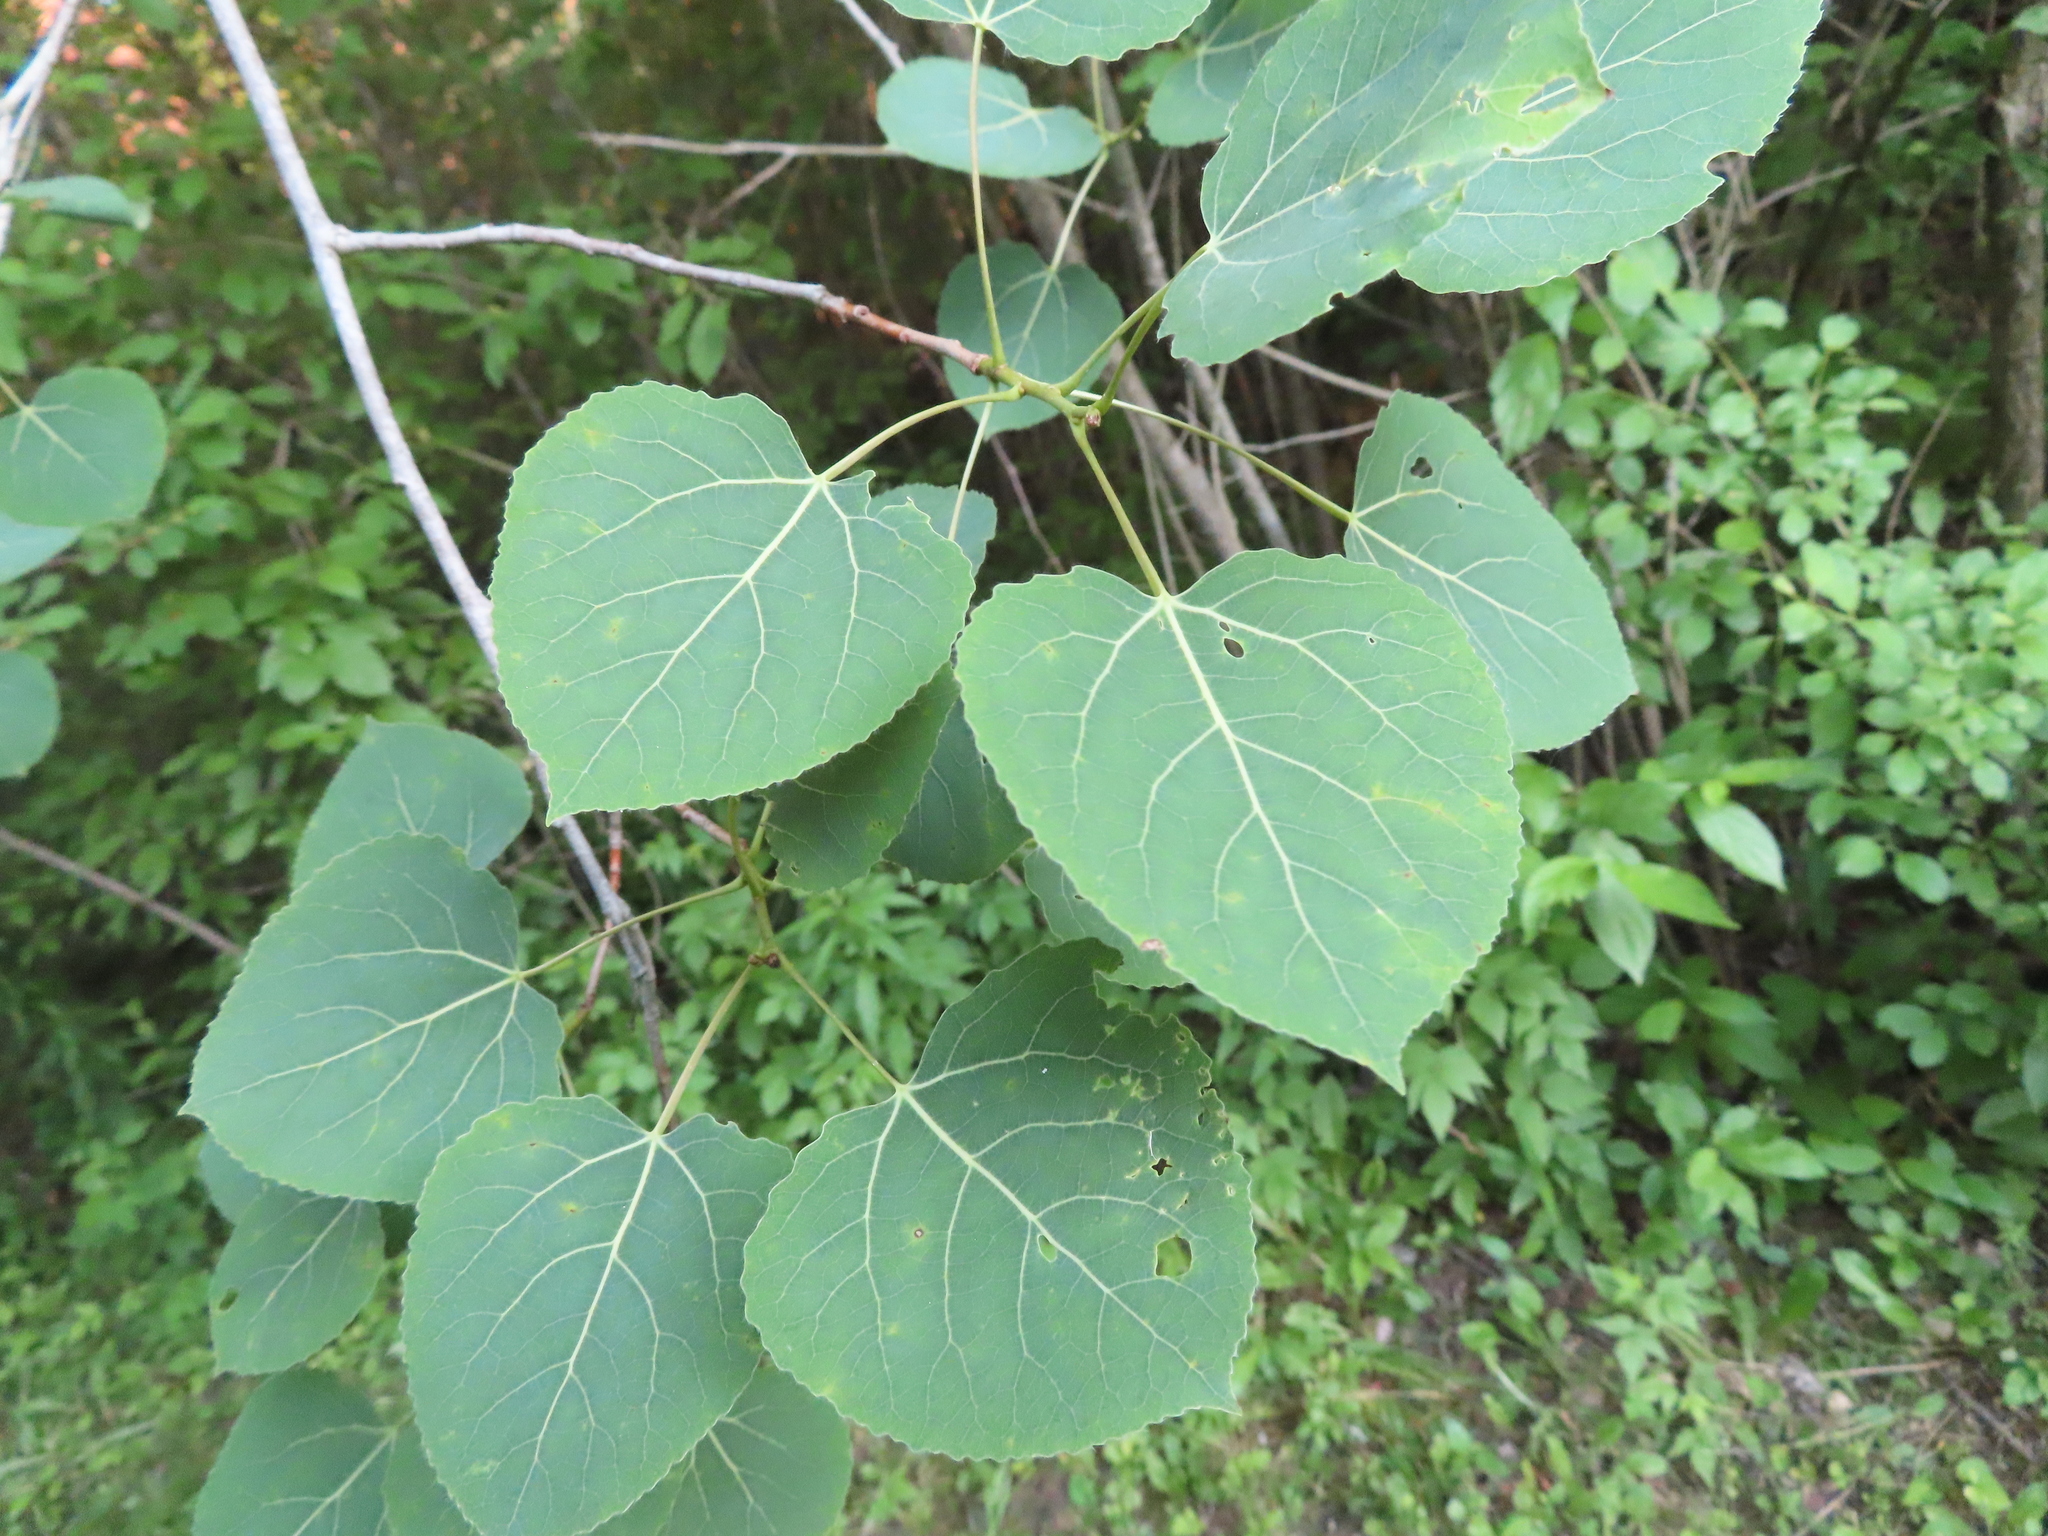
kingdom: Plantae
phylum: Tracheophyta
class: Magnoliopsida
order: Malpighiales
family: Salicaceae
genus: Populus
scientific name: Populus tremuloides
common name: Quaking aspen
